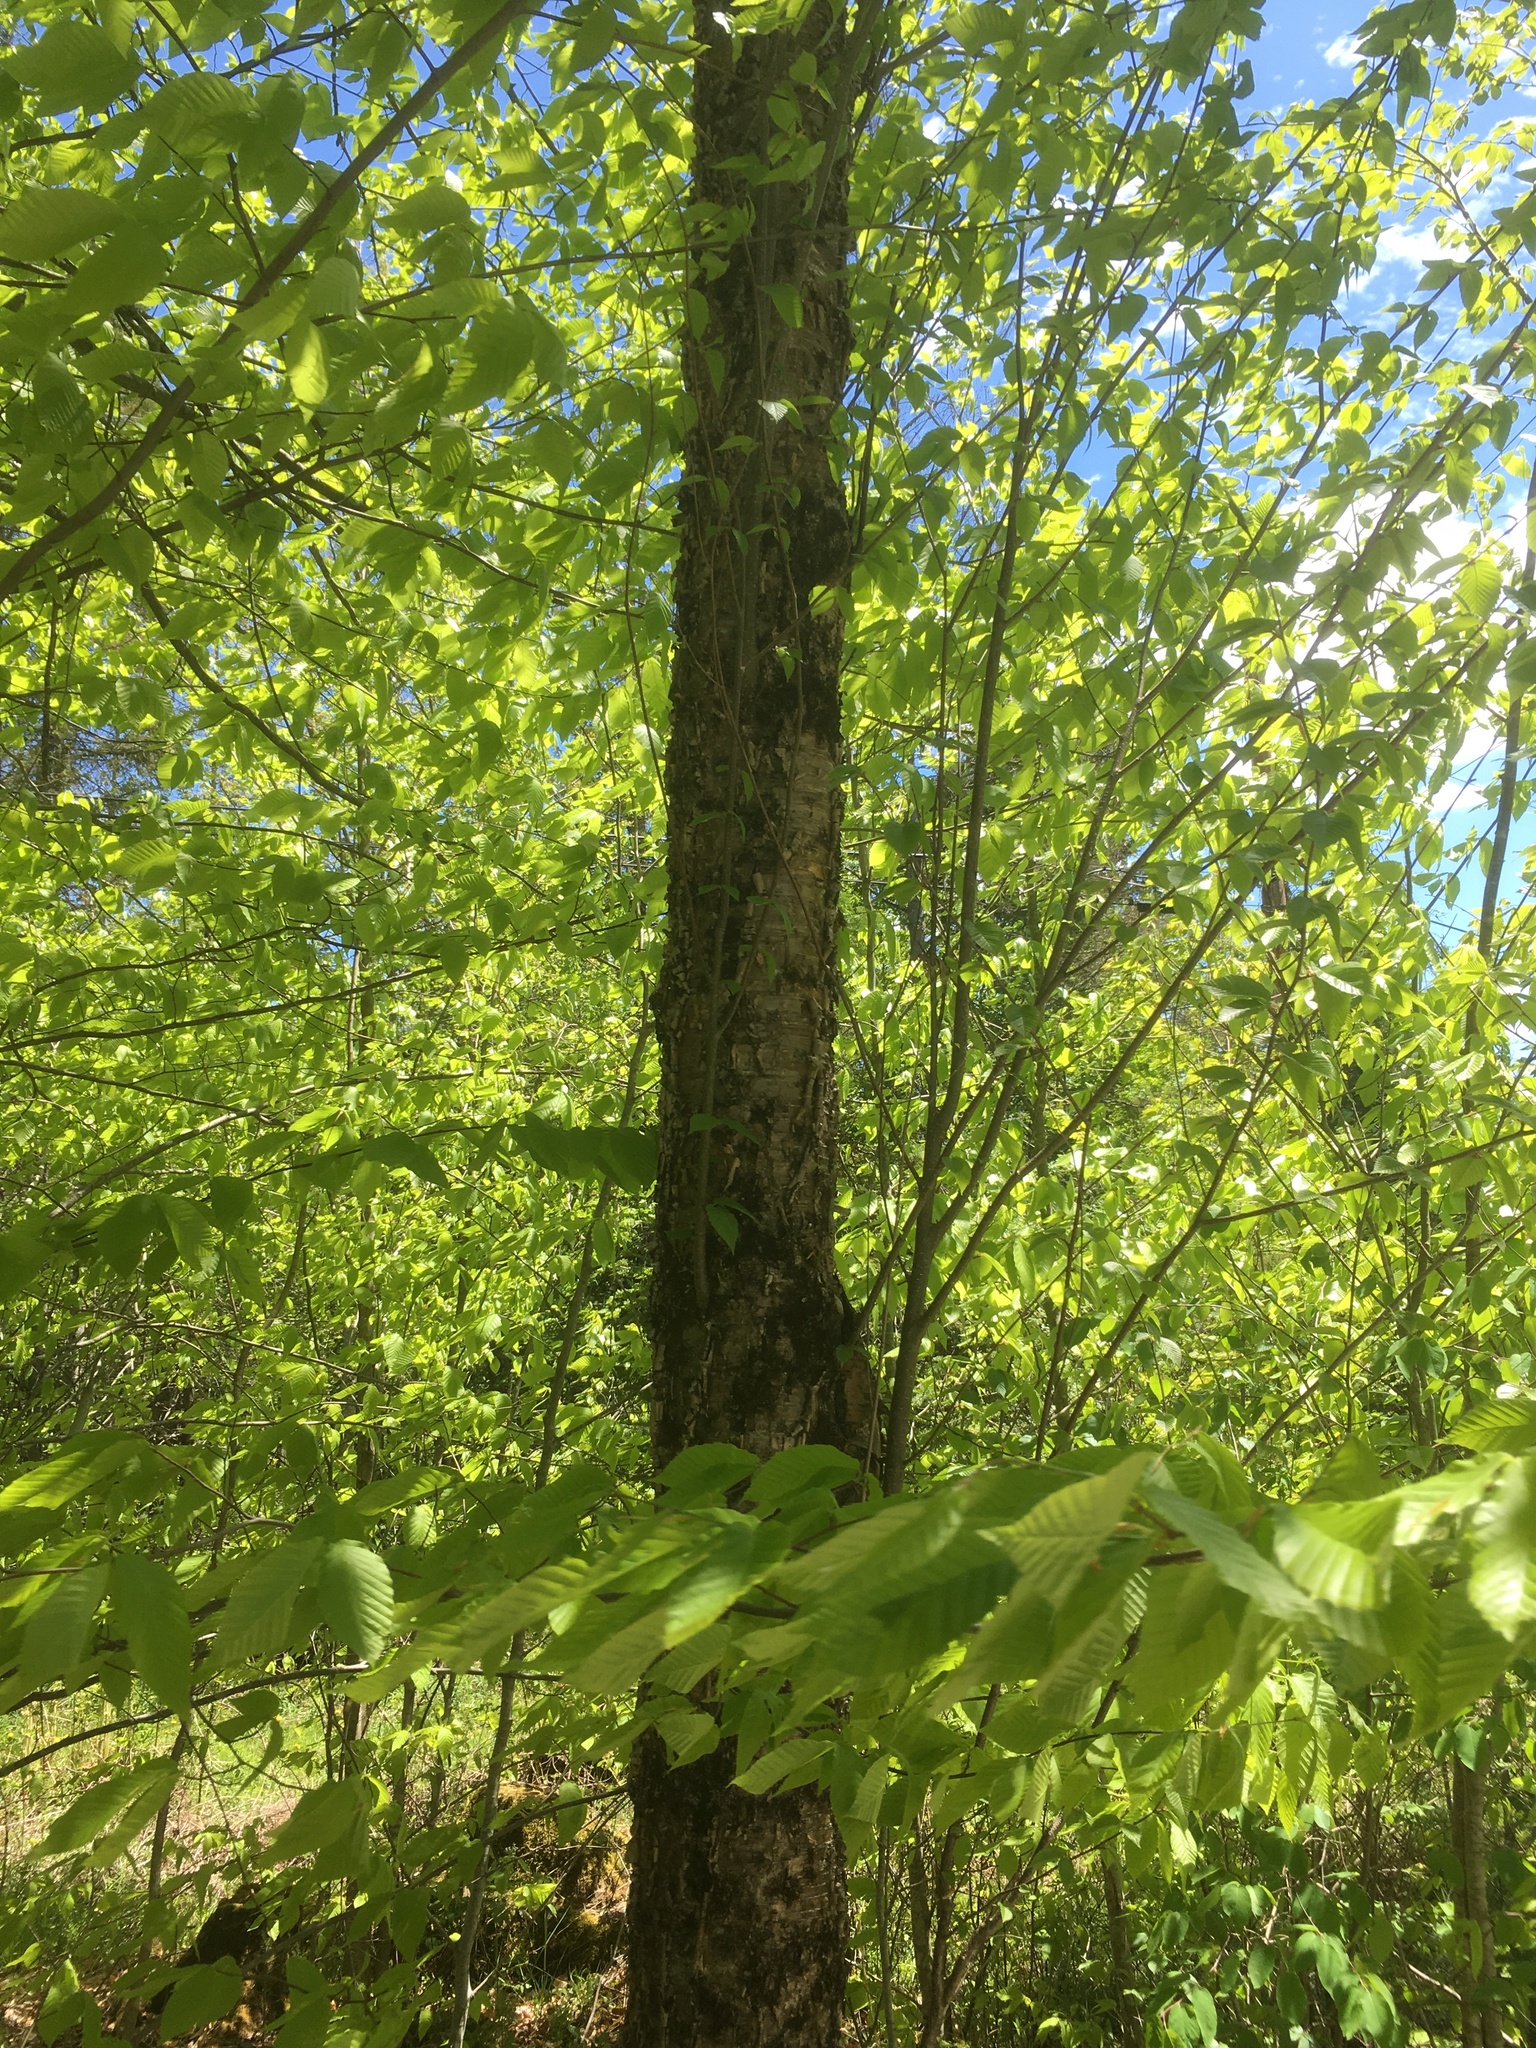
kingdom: Plantae
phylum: Tracheophyta
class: Magnoliopsida
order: Fagales
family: Betulaceae
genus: Betula
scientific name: Betula alleghaniensis
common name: Yellow birch
